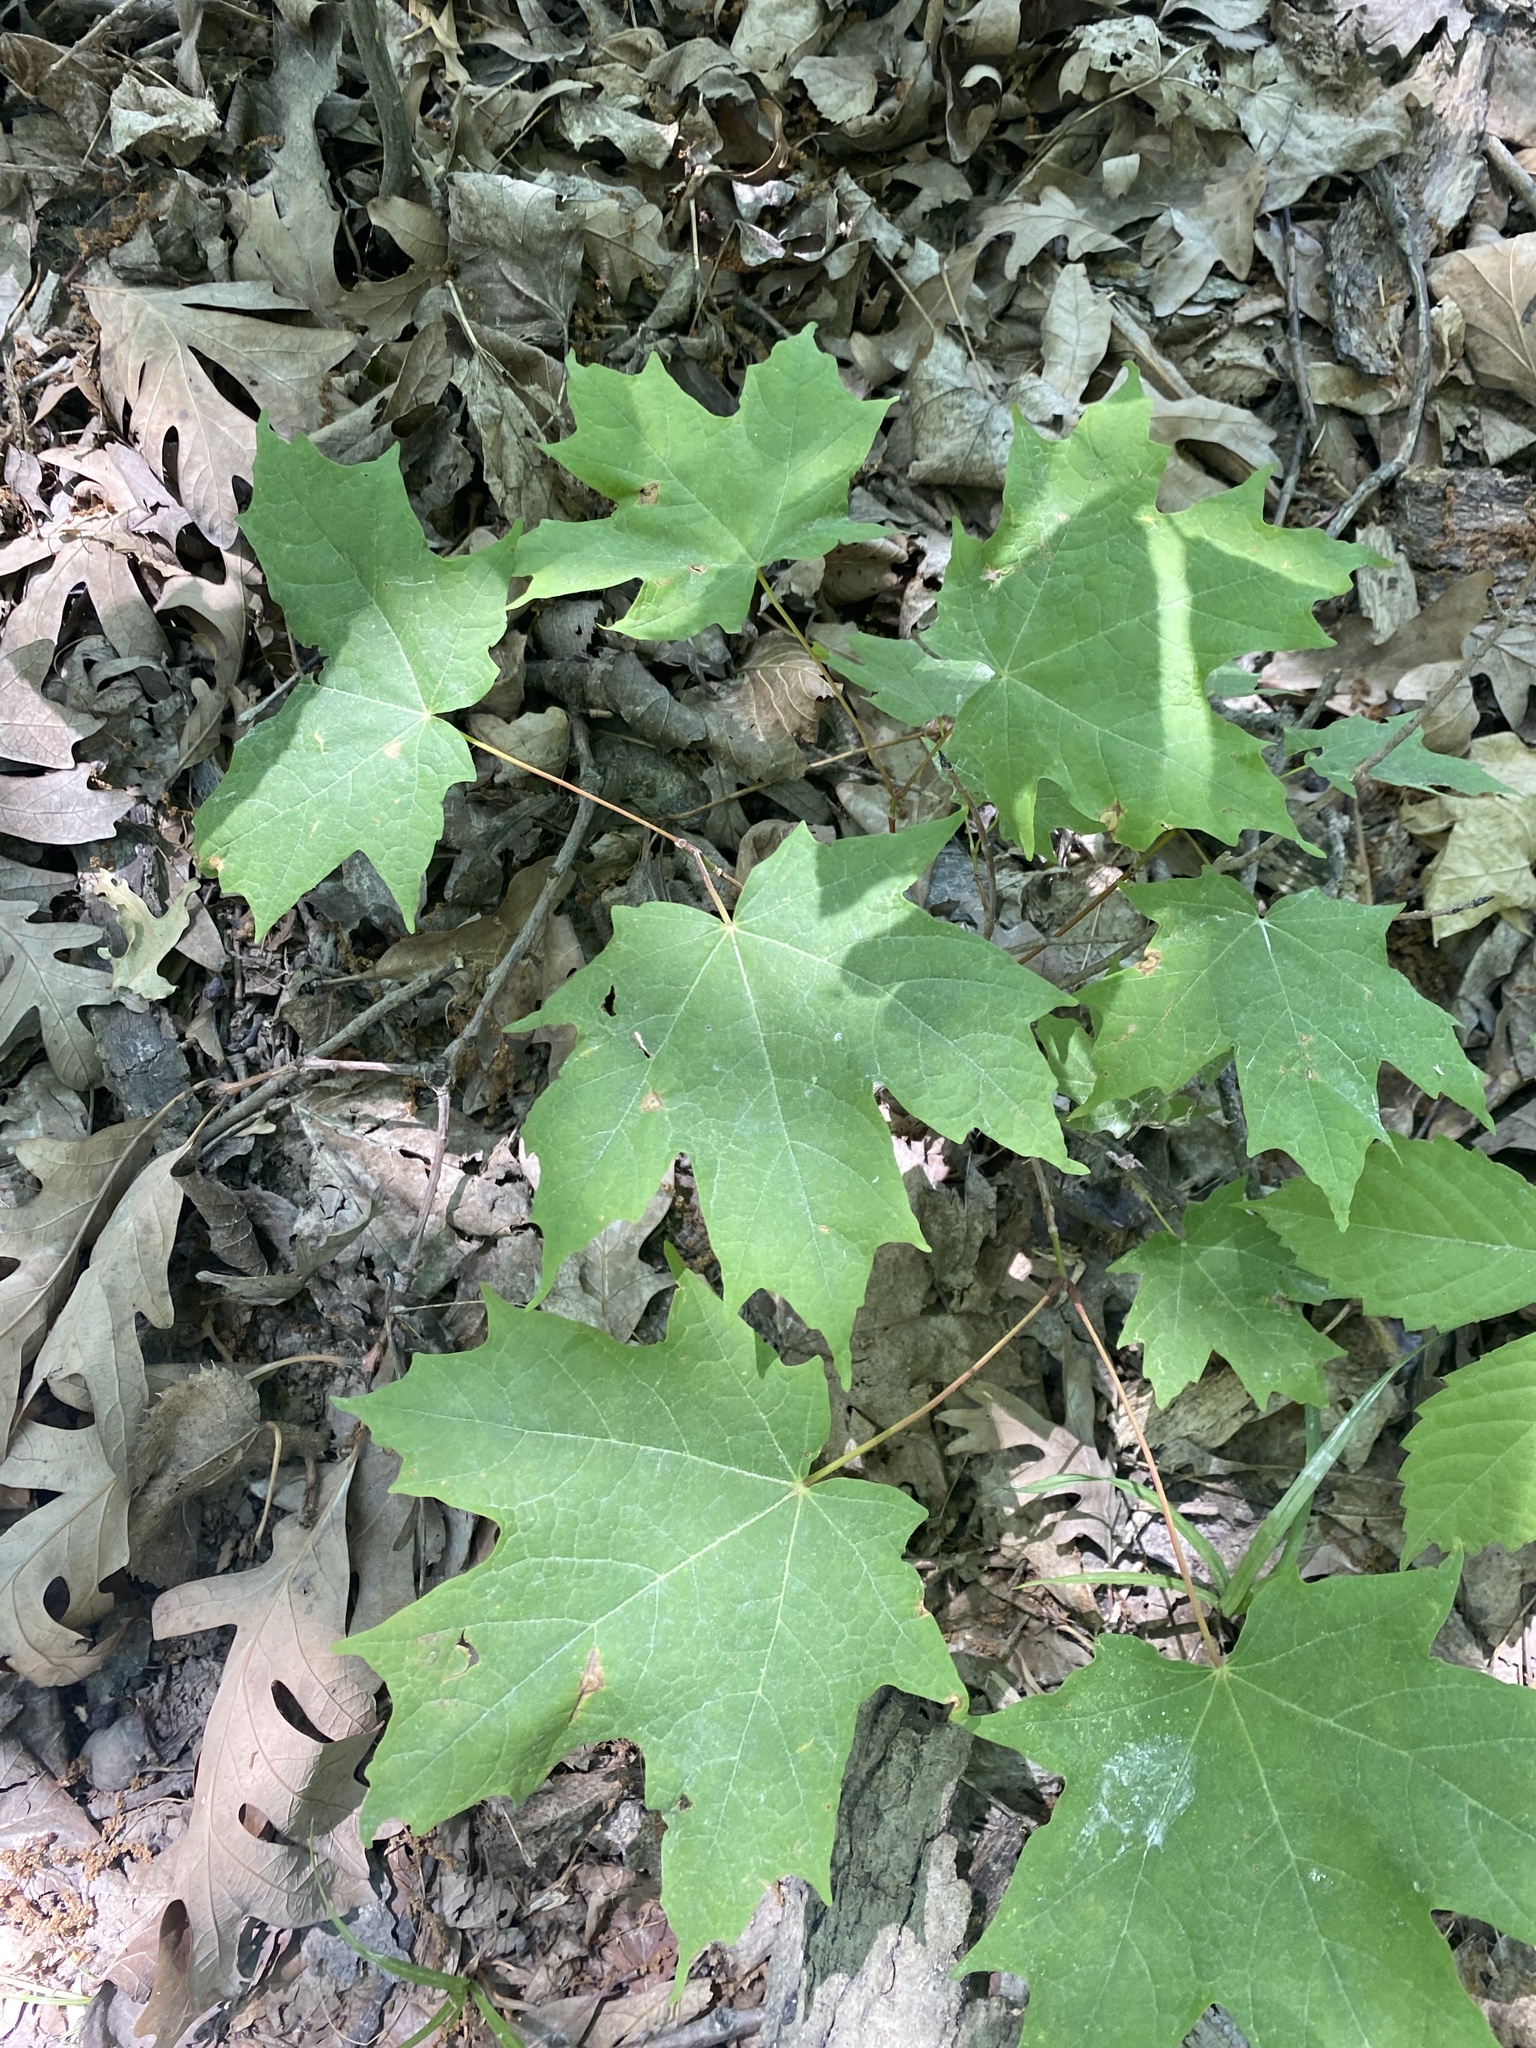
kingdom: Plantae
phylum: Tracheophyta
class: Magnoliopsida
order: Sapindales
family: Sapindaceae
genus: Acer
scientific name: Acer saccharum
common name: Sugar maple
